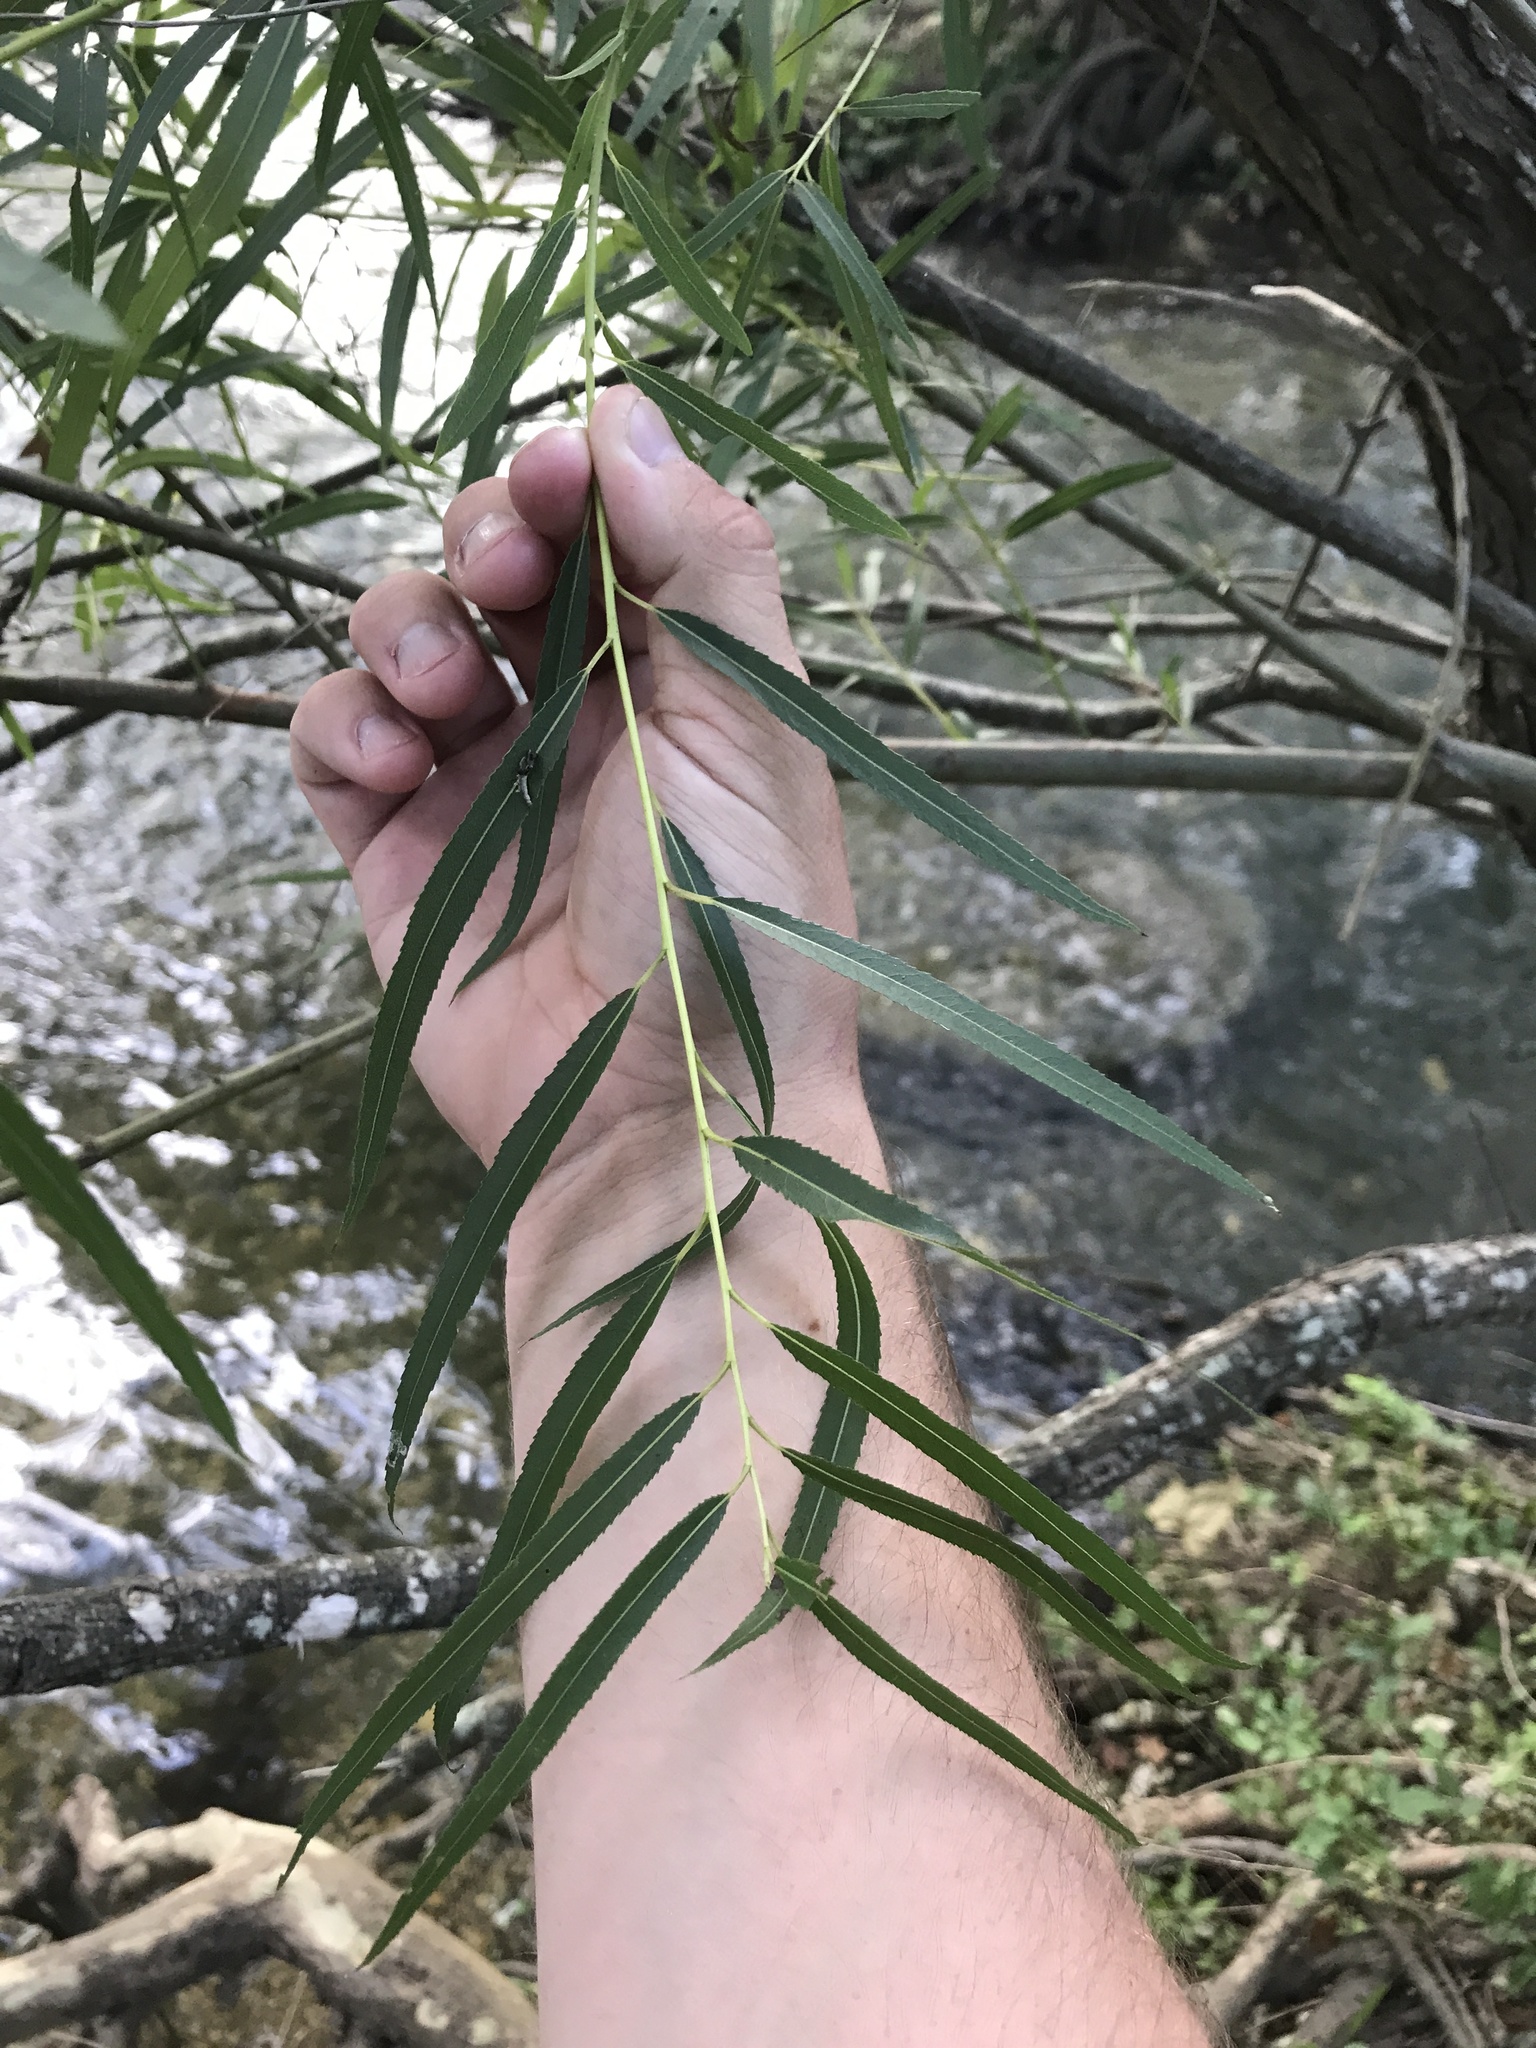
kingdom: Plantae
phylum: Tracheophyta
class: Magnoliopsida
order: Malpighiales
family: Salicaceae
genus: Salix
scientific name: Salix nigra
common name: Black willow
